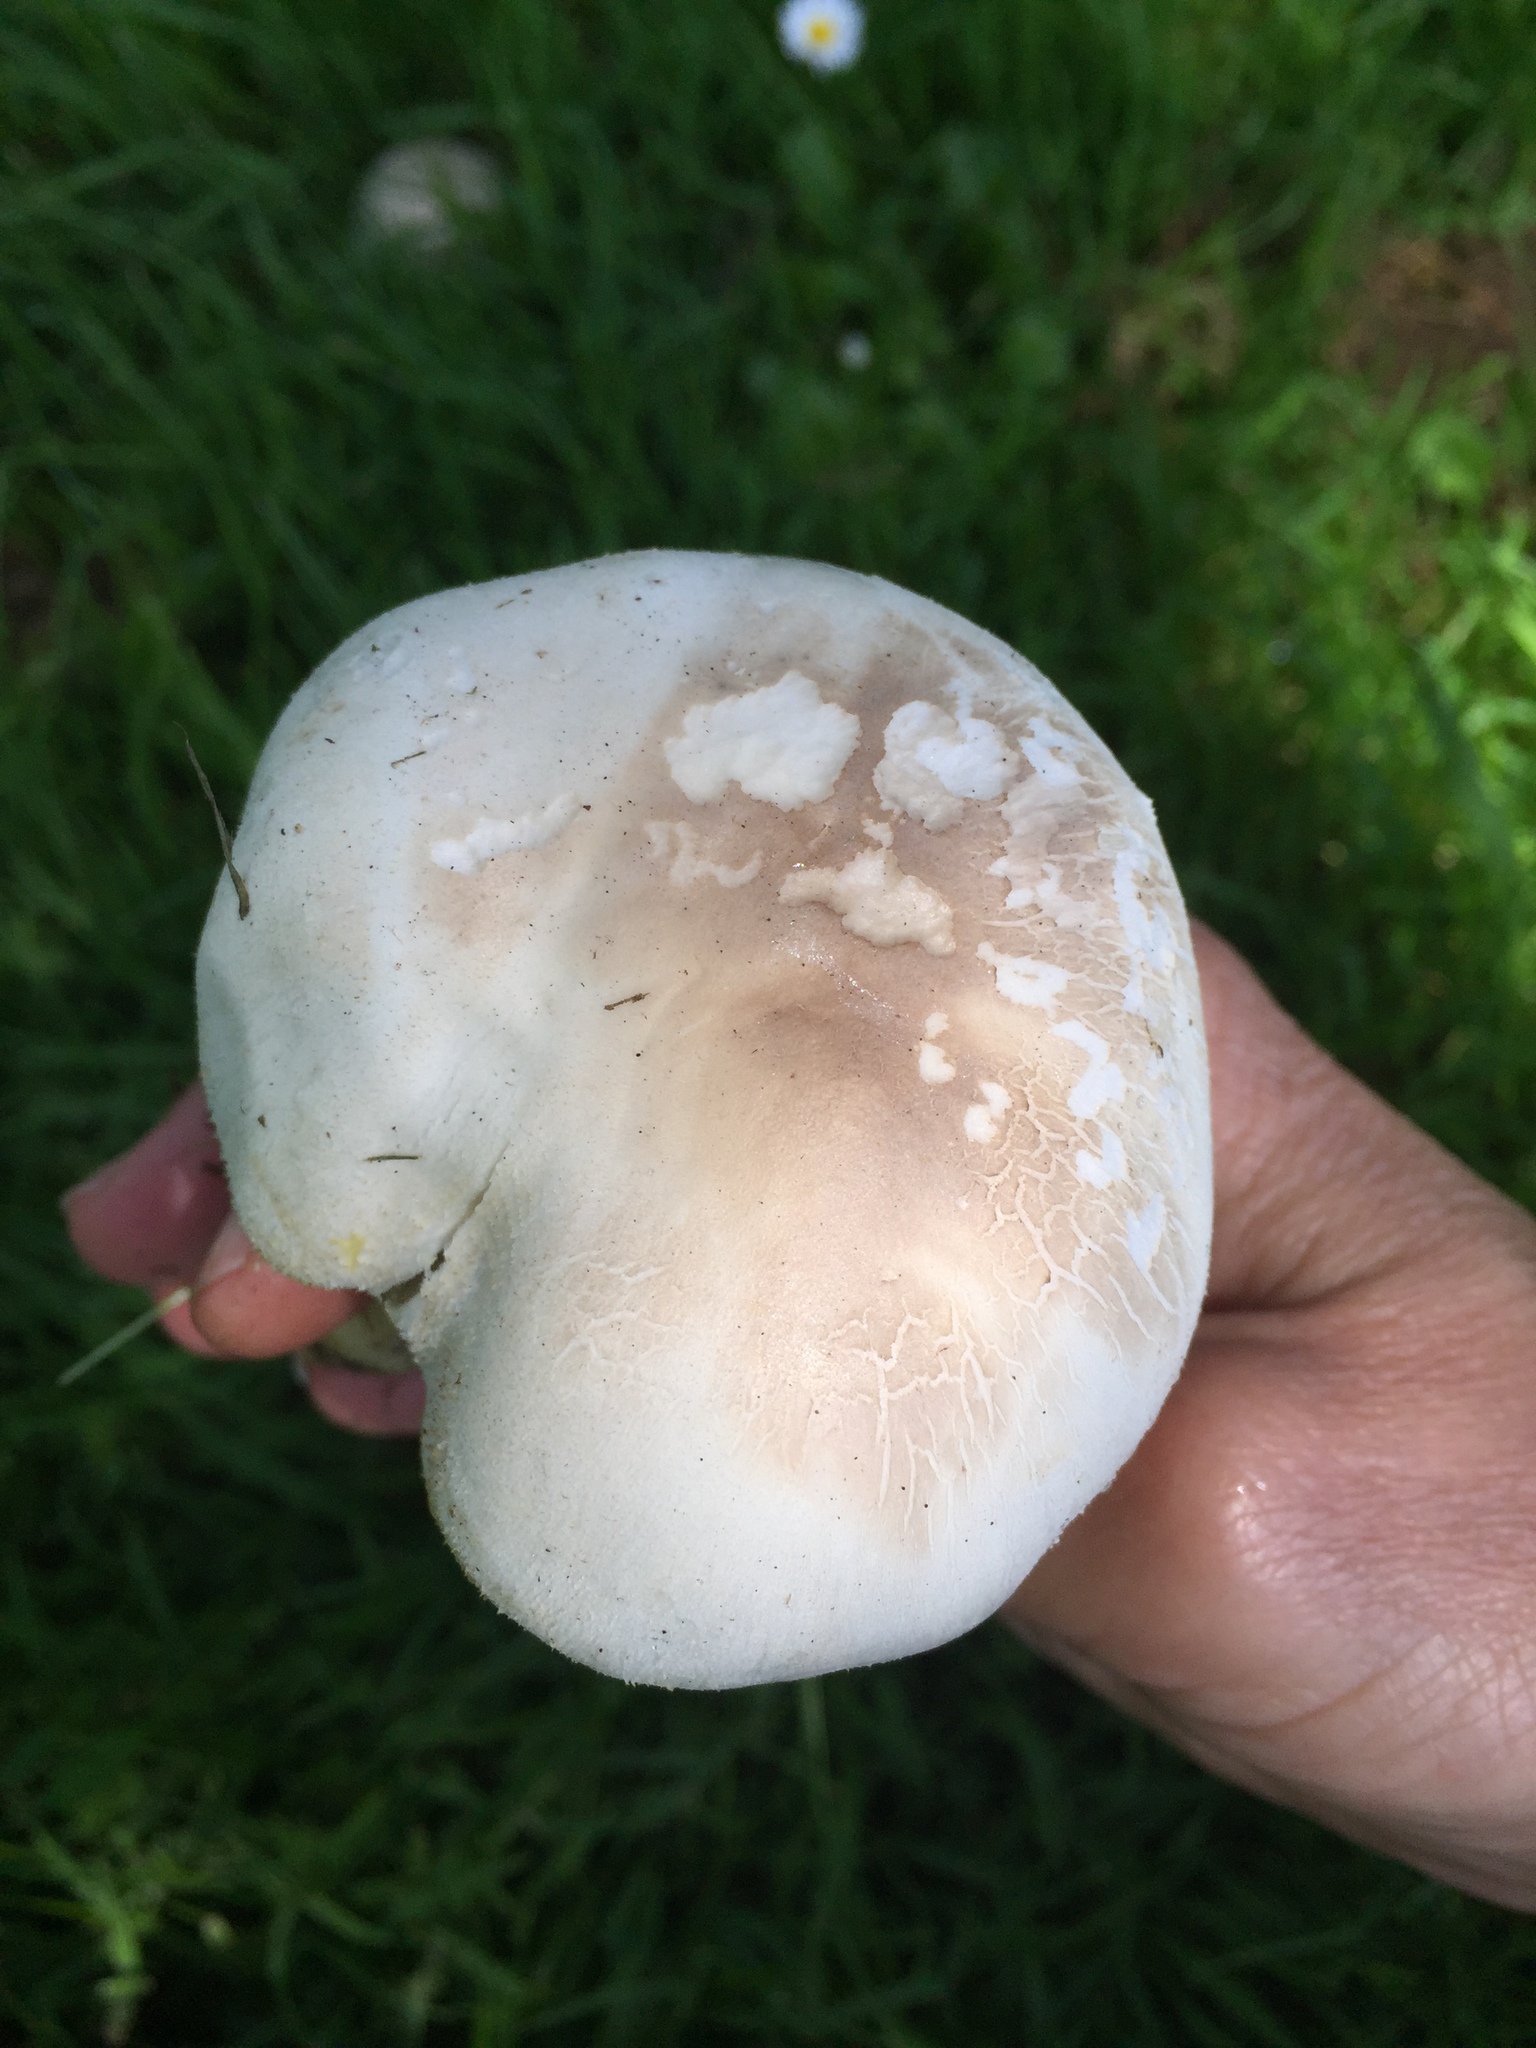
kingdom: Fungi
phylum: Basidiomycota
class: Agaricomycetes
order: Agaricales
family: Agaricaceae
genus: Agaricus
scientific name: Agaricus xanthodermus
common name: Yellow stainer
